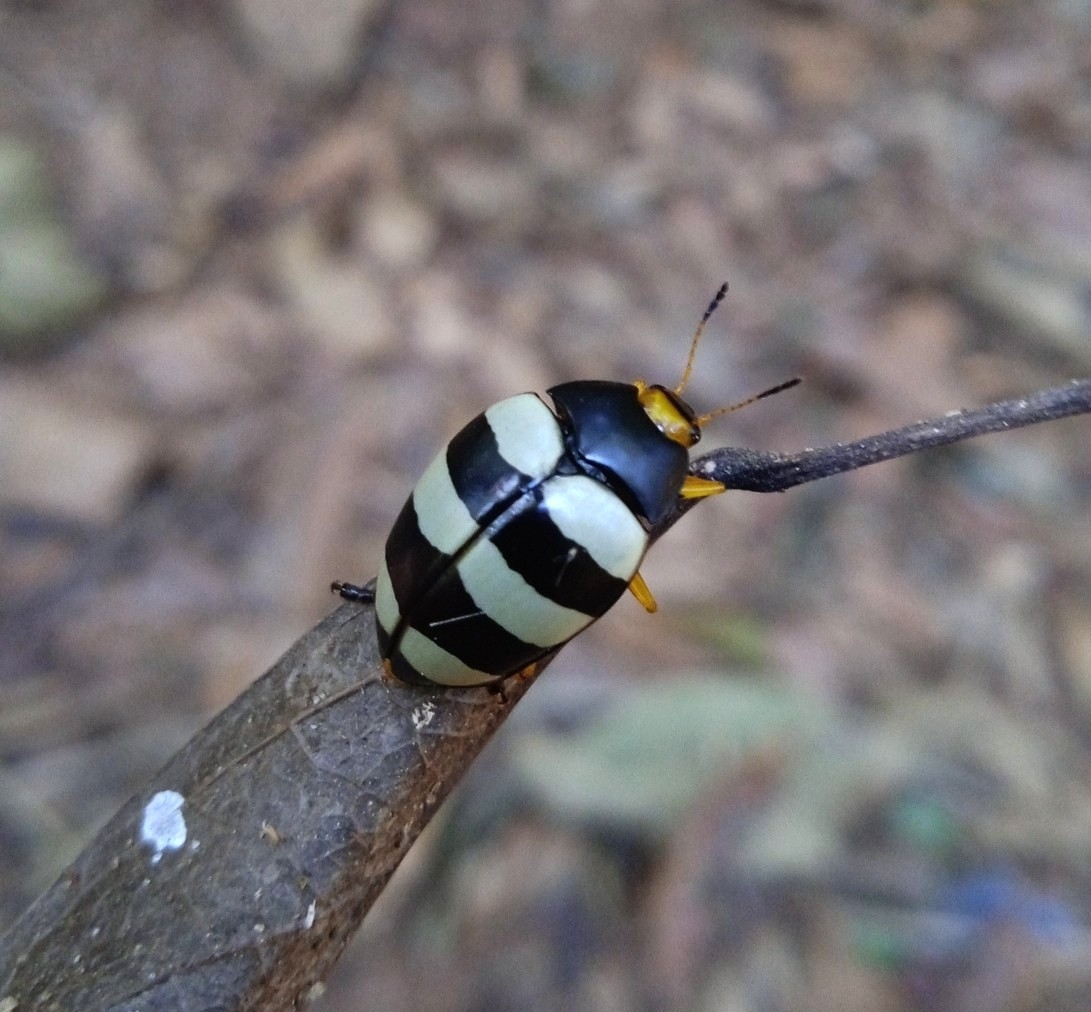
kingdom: Animalia
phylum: Arthropoda
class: Insecta
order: Coleoptera
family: Erotylidae
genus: Iphiclus
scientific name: Iphiclus
